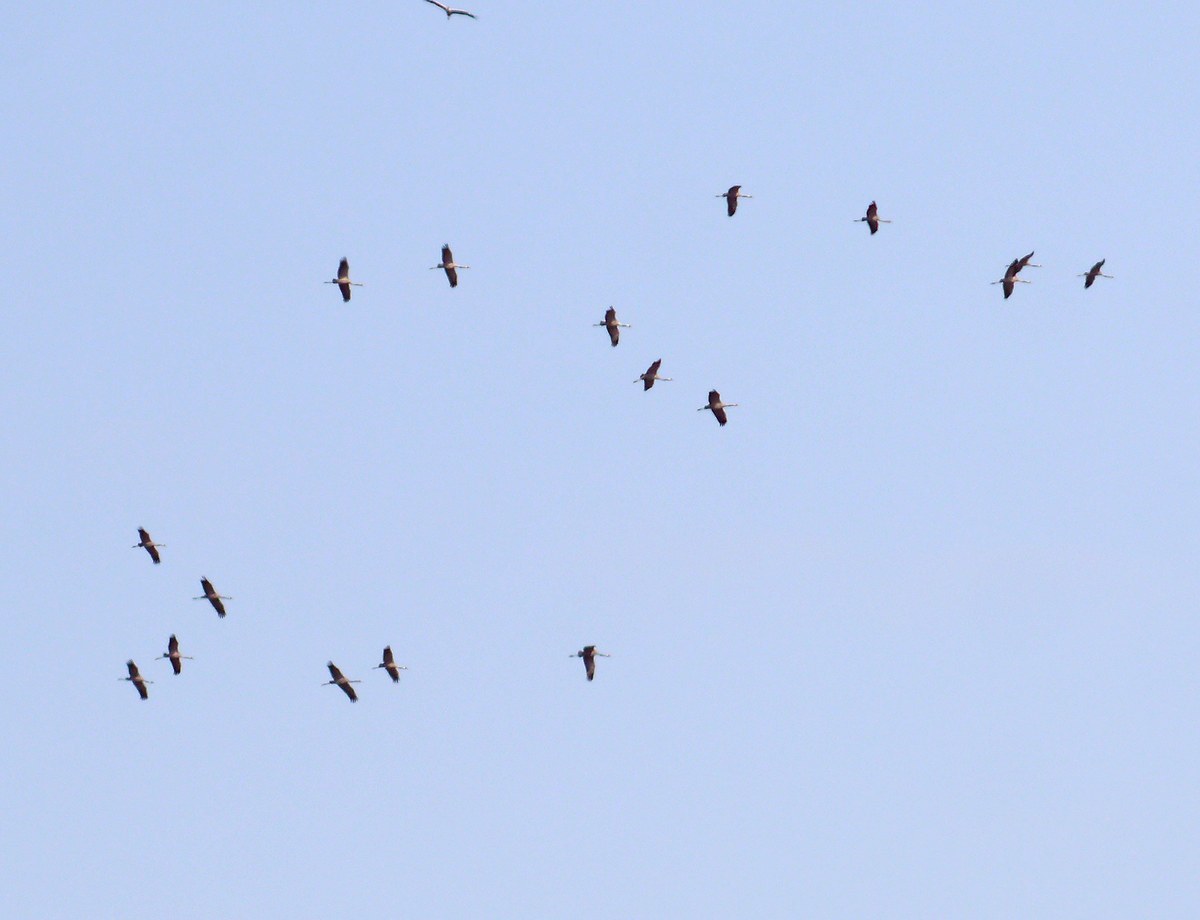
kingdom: Animalia
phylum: Chordata
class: Aves
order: Gruiformes
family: Gruidae
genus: Grus
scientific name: Grus grus
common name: Common crane
